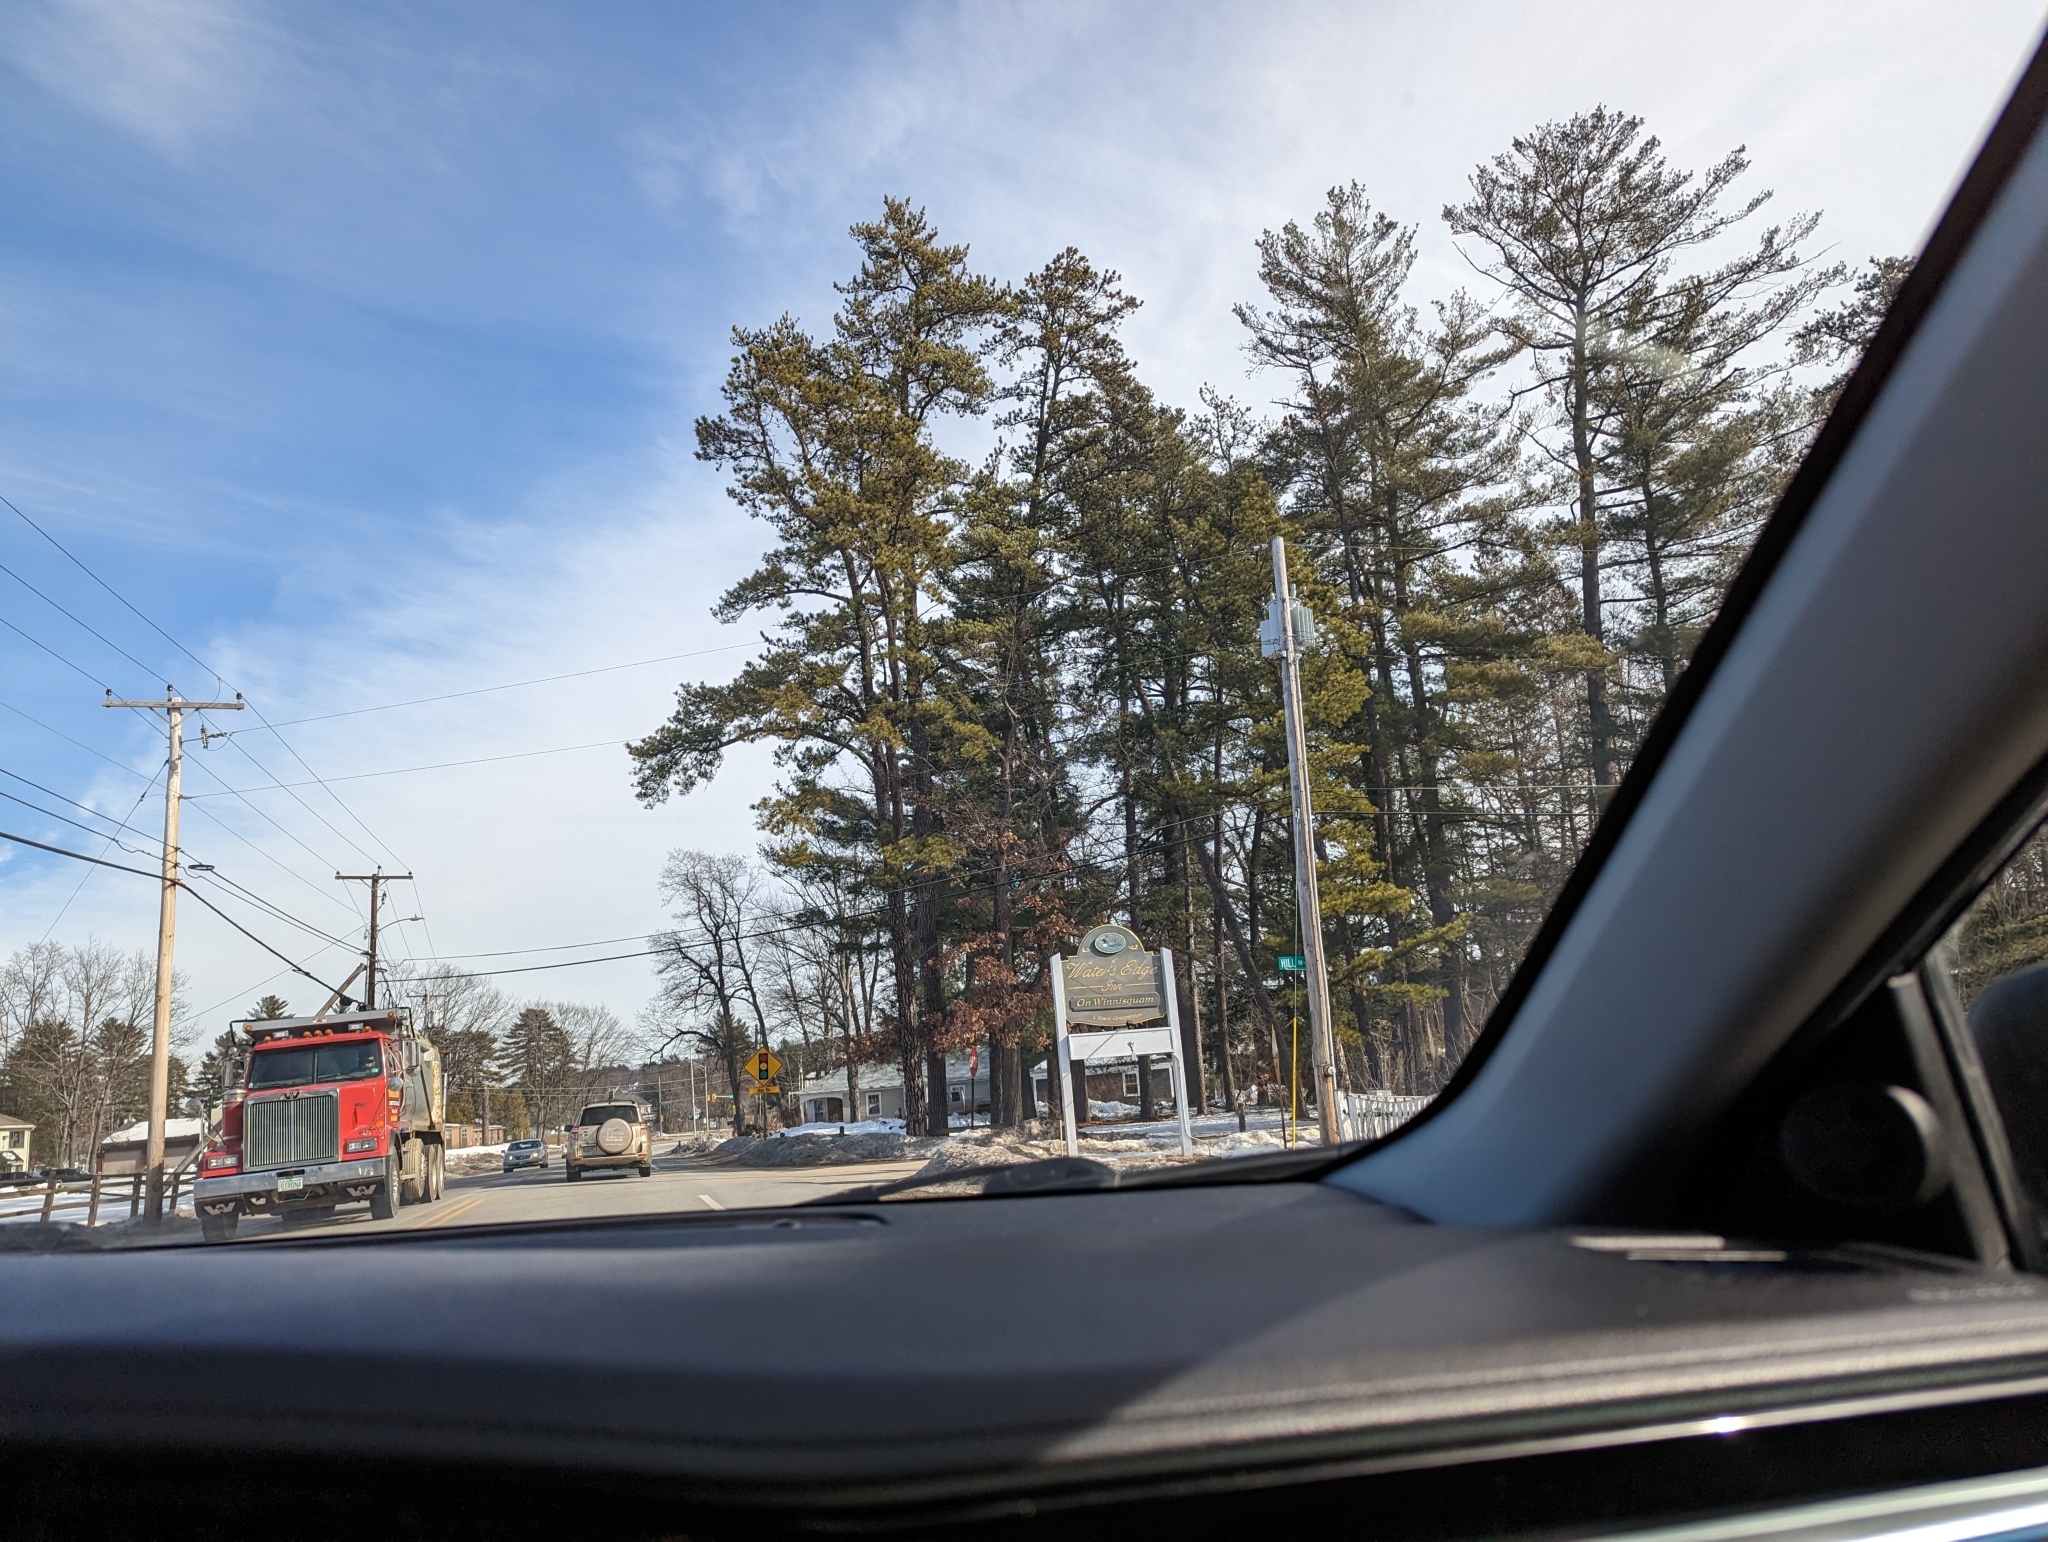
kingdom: Plantae
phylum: Tracheophyta
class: Pinopsida
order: Pinales
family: Pinaceae
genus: Pinus
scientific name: Pinus strobus
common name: Weymouth pine
